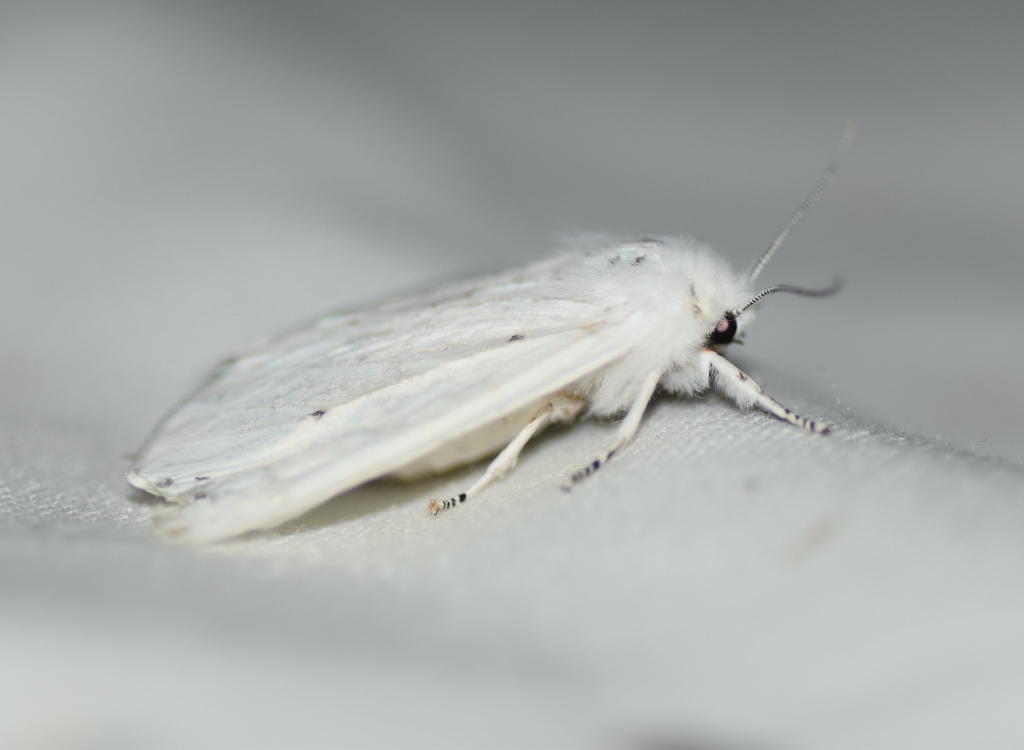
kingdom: Animalia
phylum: Arthropoda
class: Insecta
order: Lepidoptera
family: Erebidae
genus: Spilosoma
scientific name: Spilosoma virginica
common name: Virginia tiger moth
